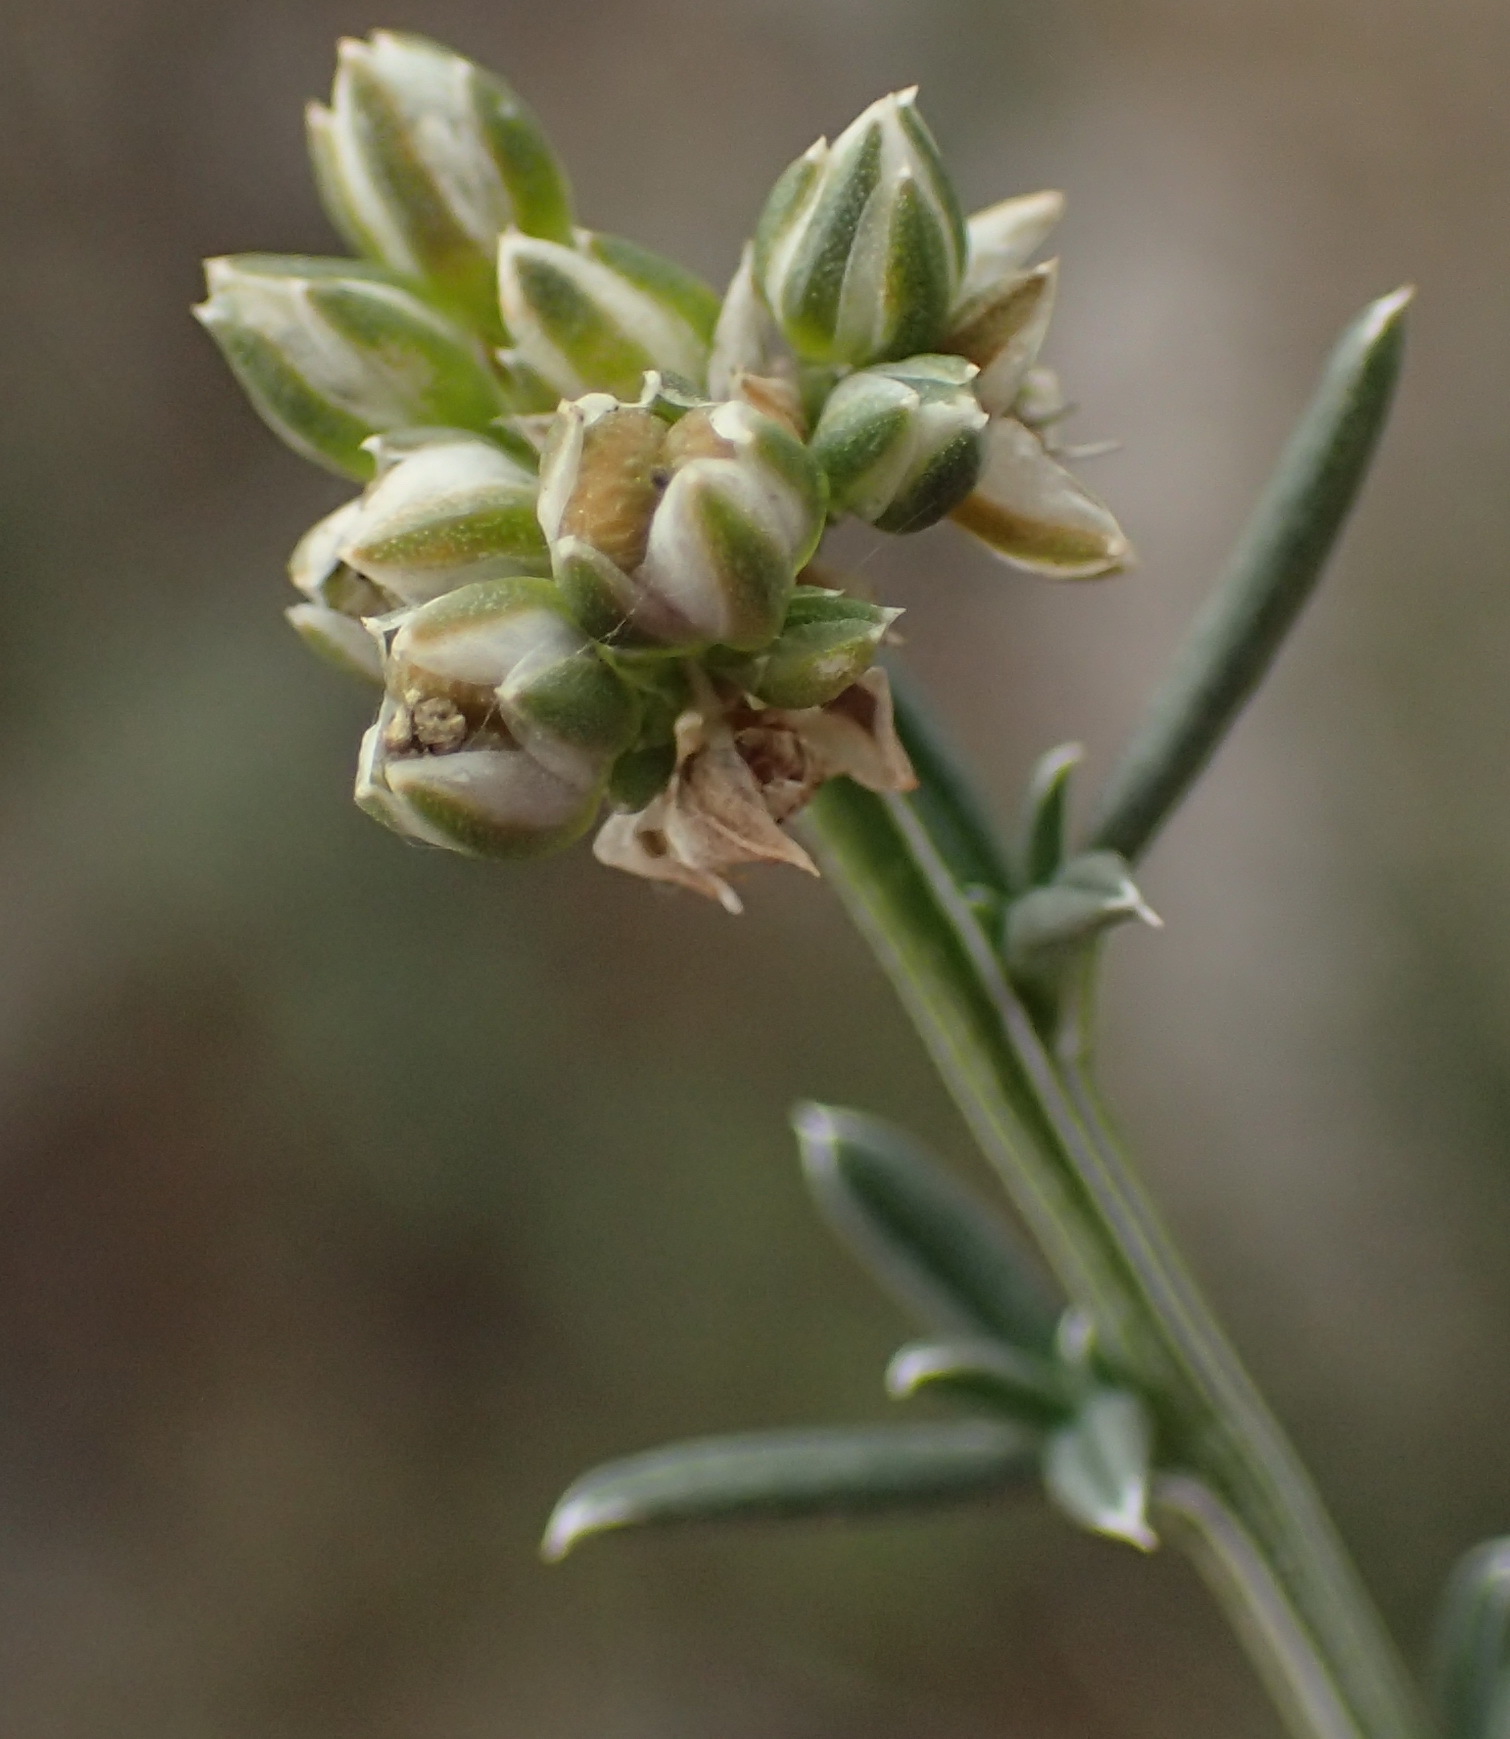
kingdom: Plantae
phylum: Tracheophyta
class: Magnoliopsida
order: Caryophyllales
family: Limeaceae
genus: Limeum
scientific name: Limeum aethiopicum
